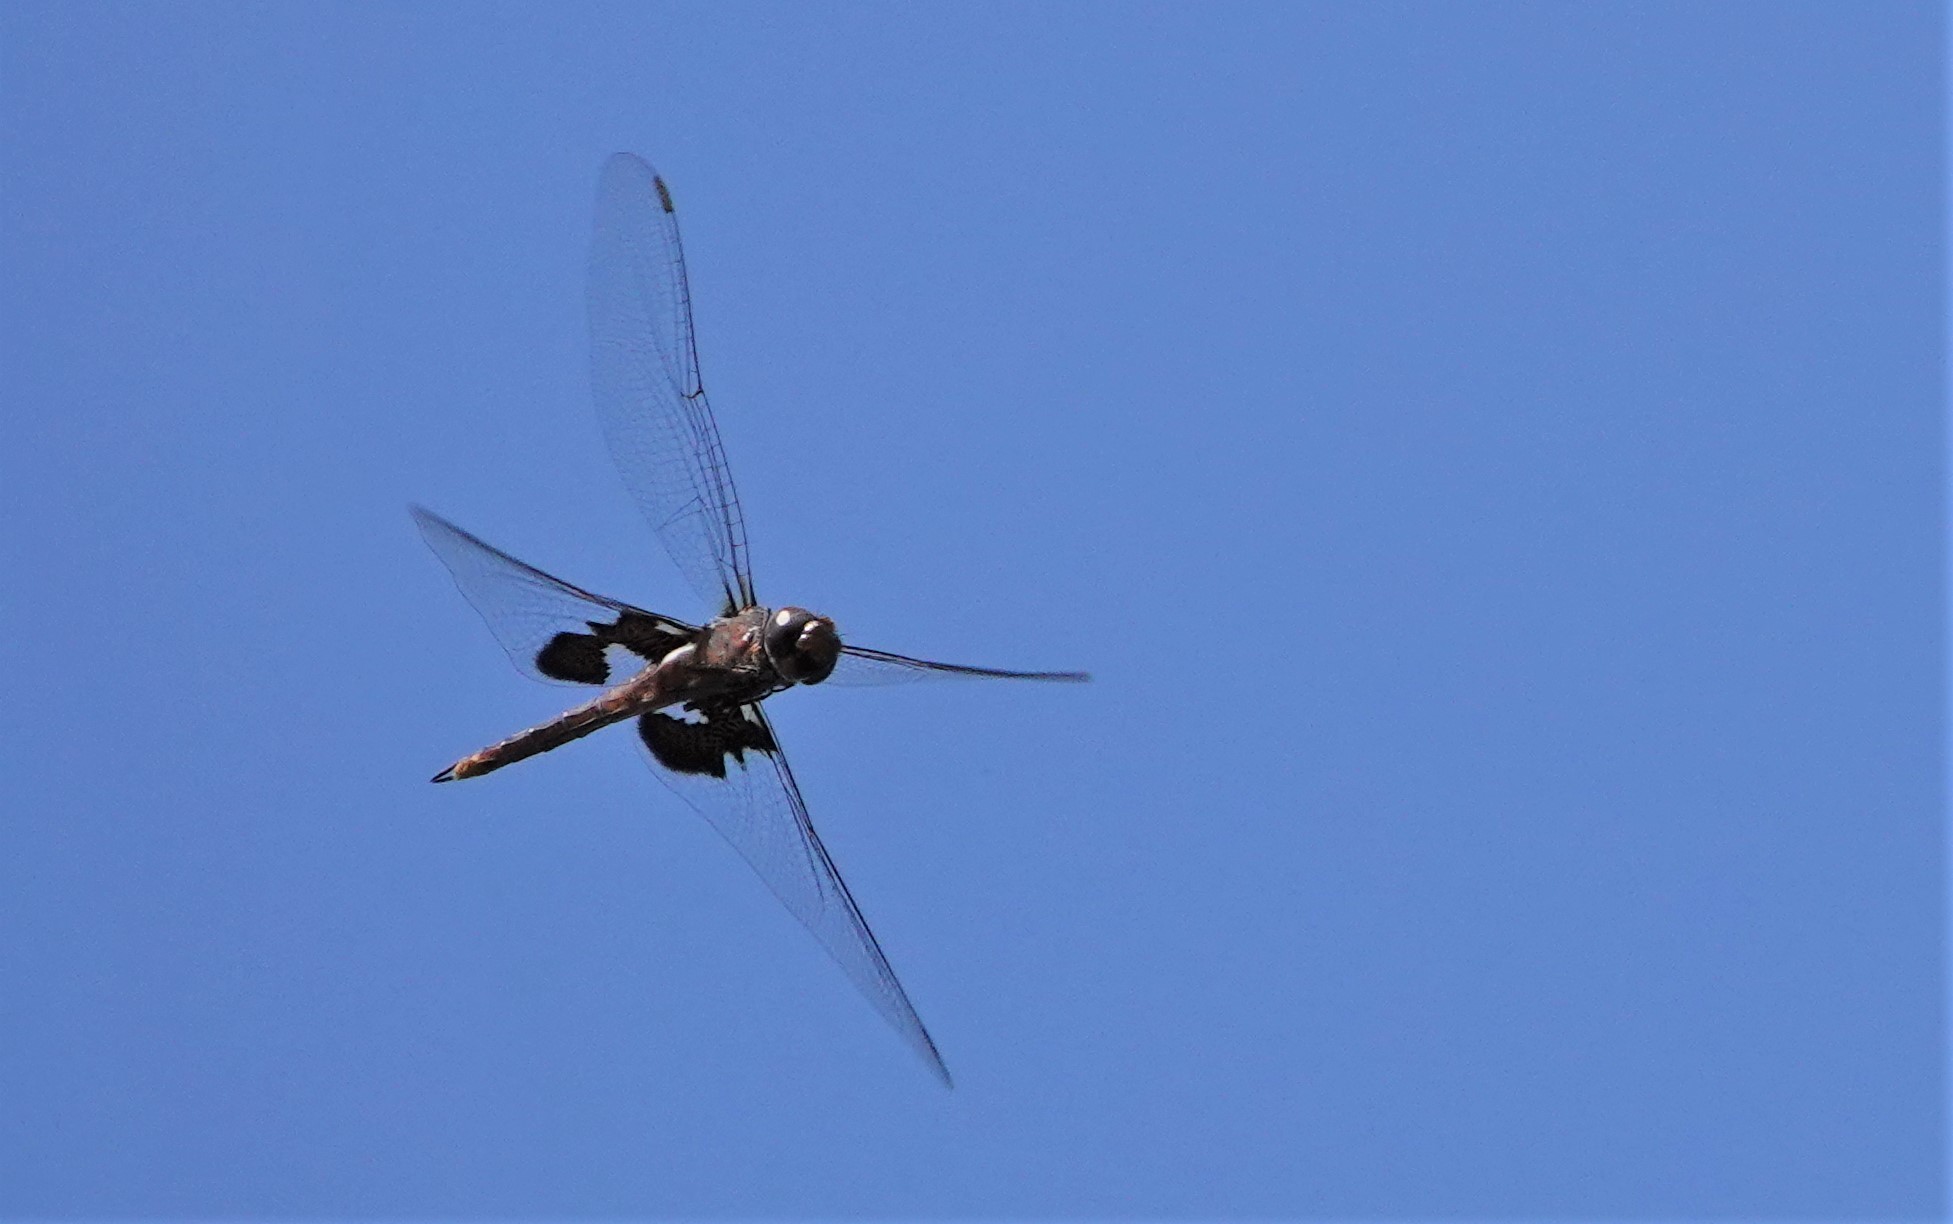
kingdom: Animalia
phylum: Arthropoda
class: Insecta
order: Odonata
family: Libellulidae
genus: Tramea
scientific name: Tramea lacerata
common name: Black saddlebags
